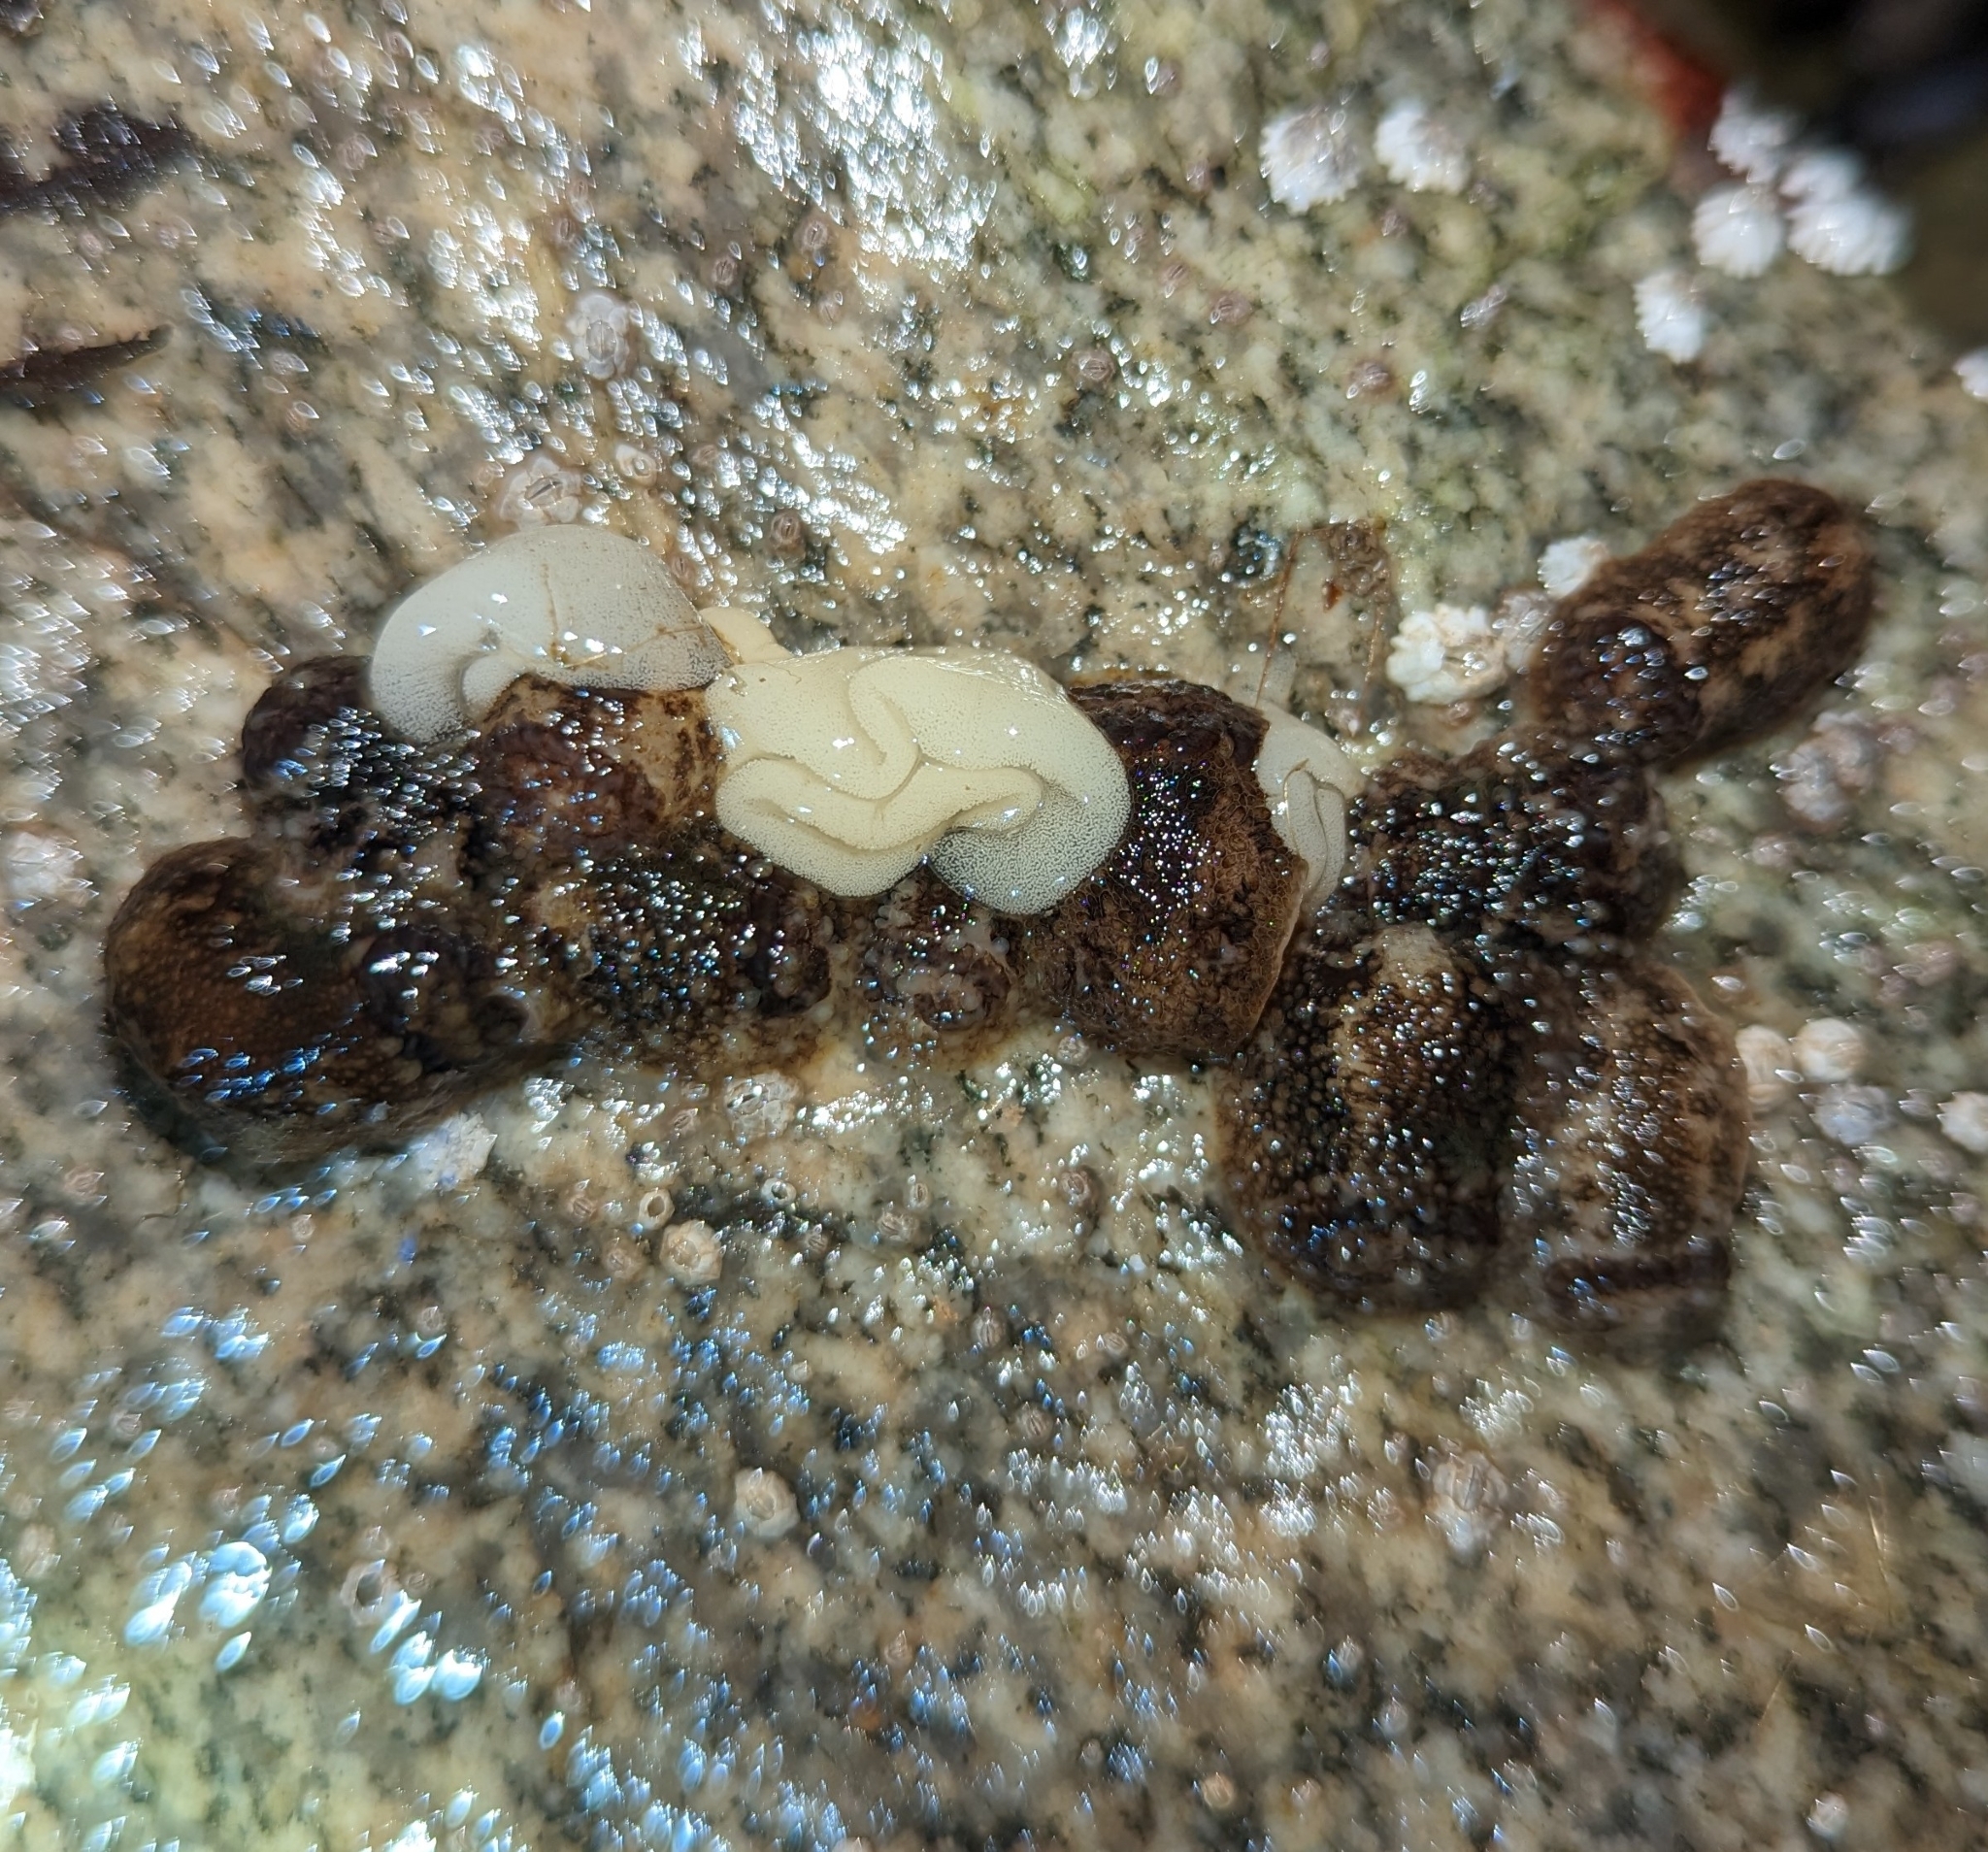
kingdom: Animalia
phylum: Mollusca
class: Gastropoda
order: Nudibranchia
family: Onchidorididae
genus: Onchidoris
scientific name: Onchidoris bilamellata
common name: Barnacle-eating onchidoris
